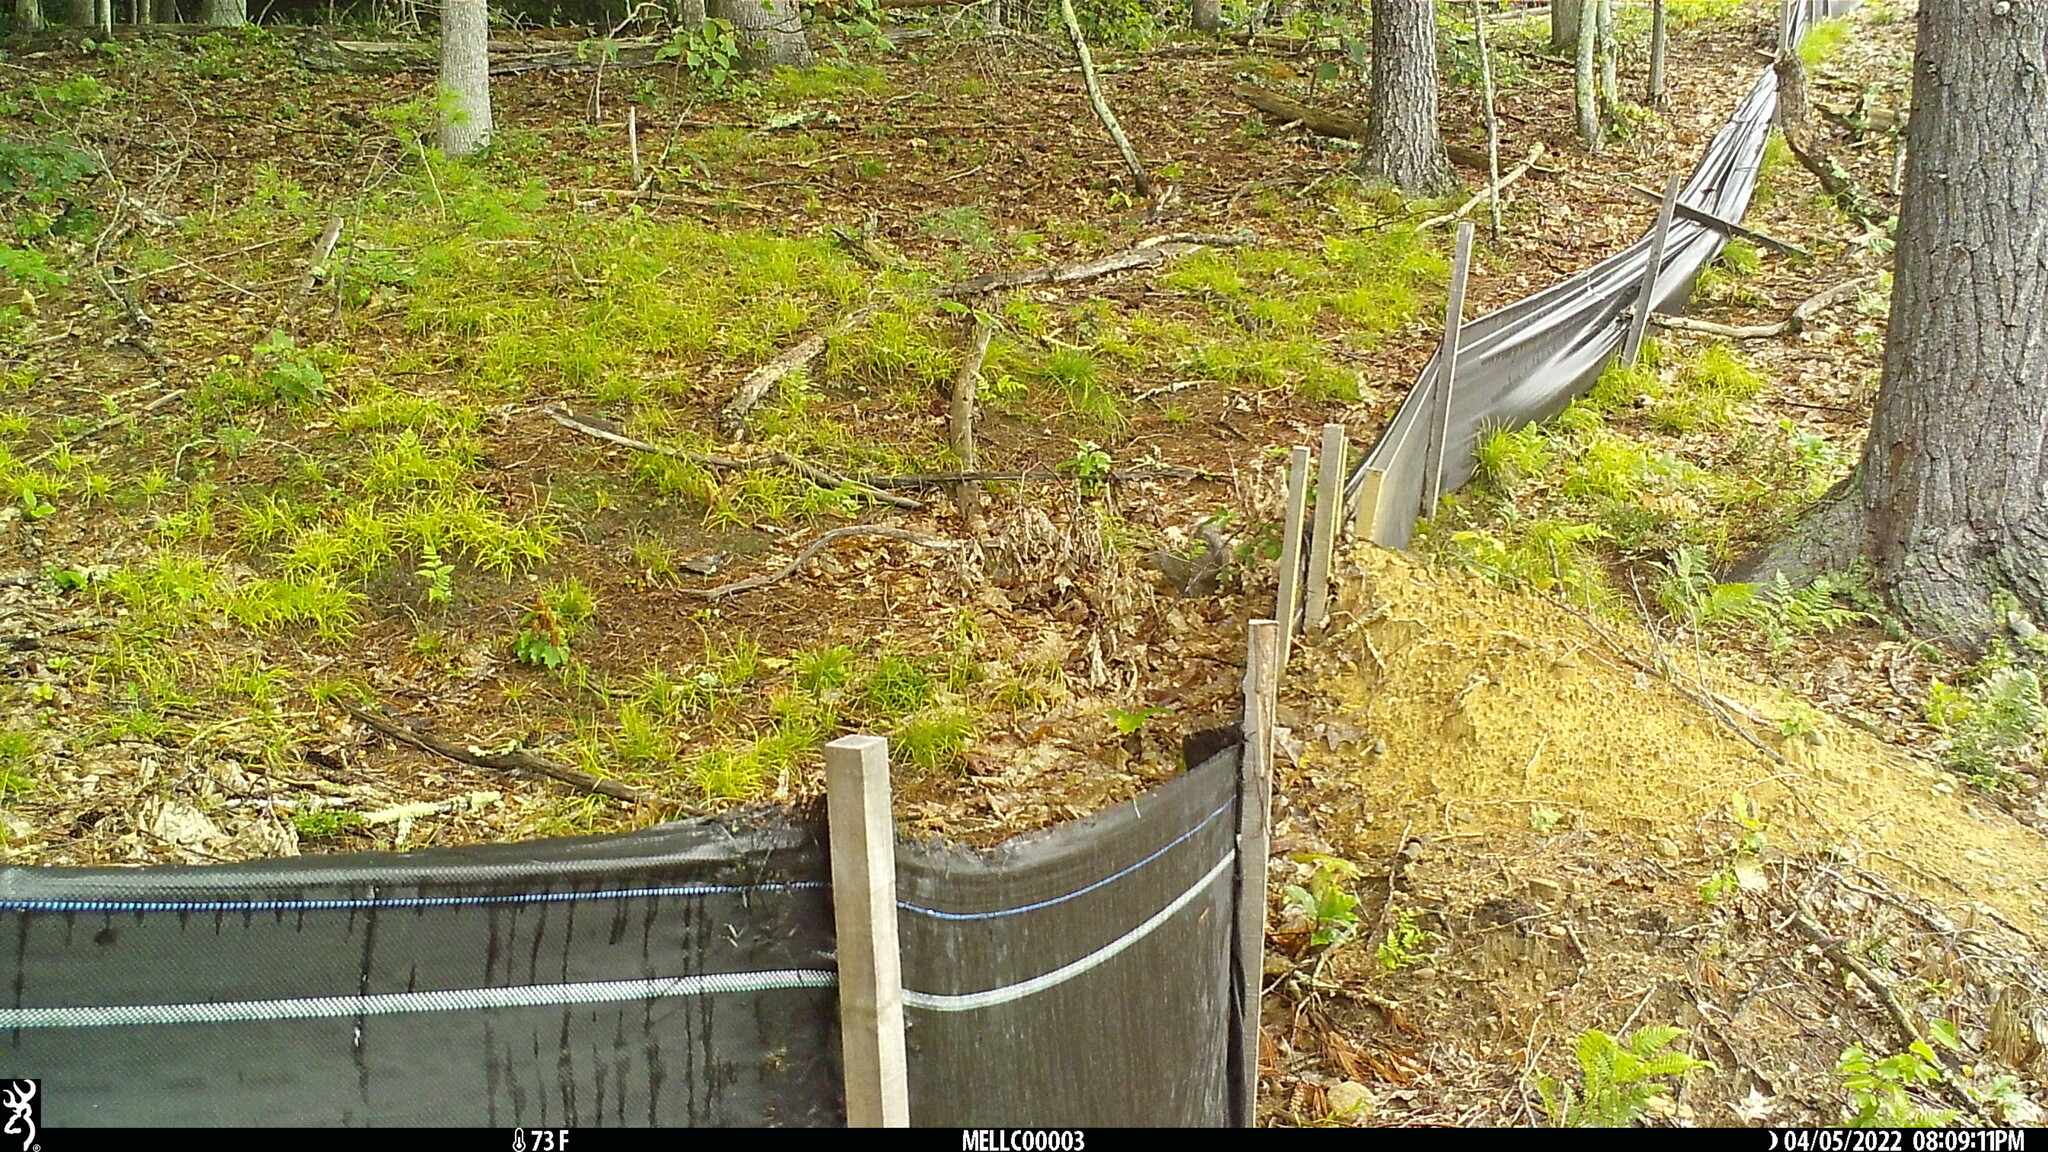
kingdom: Animalia
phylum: Chordata
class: Mammalia
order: Rodentia
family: Sciuridae
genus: Sciurus
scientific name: Sciurus carolinensis
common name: Eastern gray squirrel
